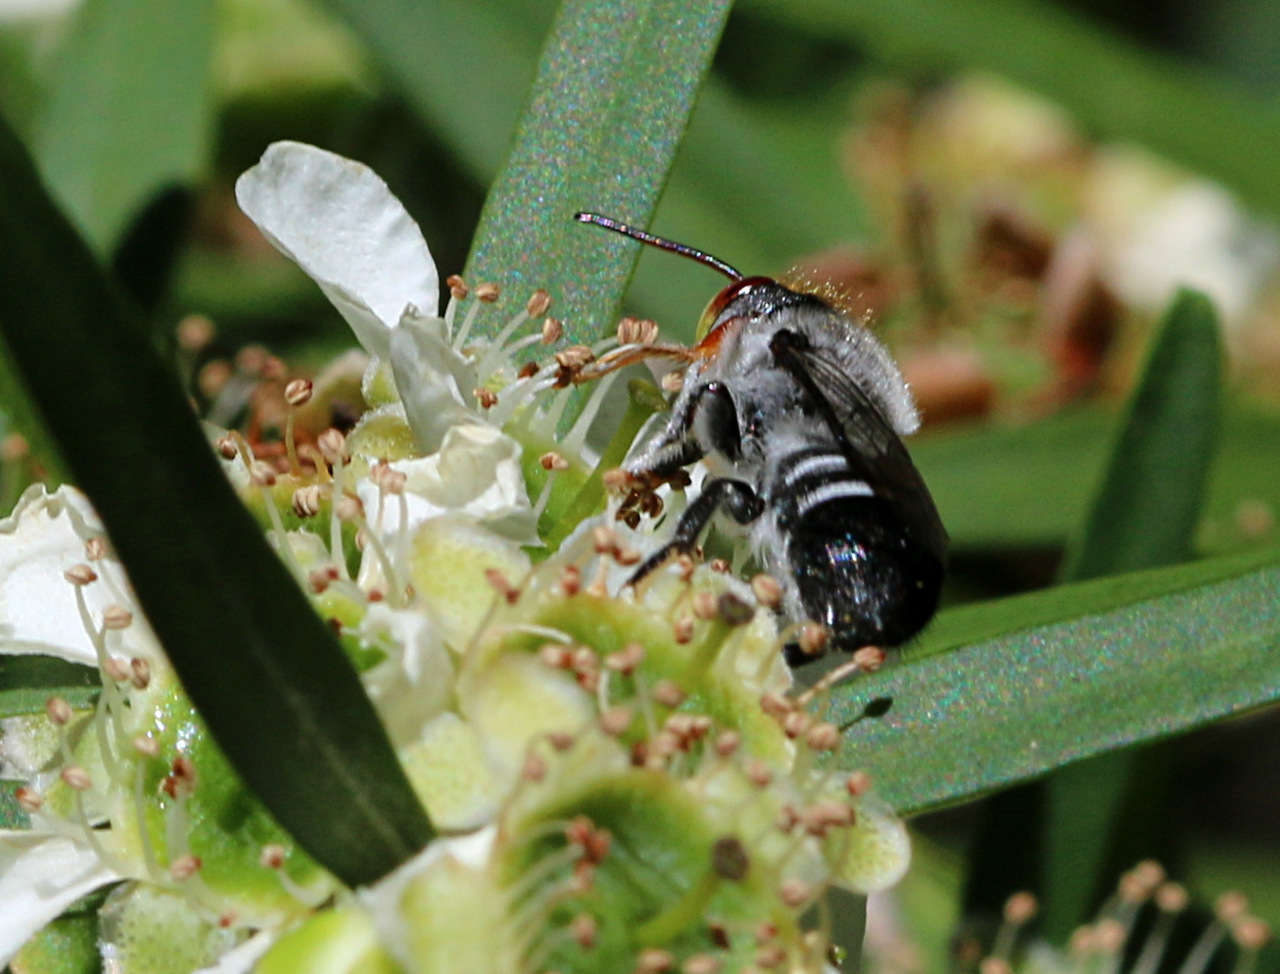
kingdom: Animalia
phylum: Arthropoda
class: Insecta
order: Hymenoptera
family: Megachilidae
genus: Megachile
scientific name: Megachile aurifrons
